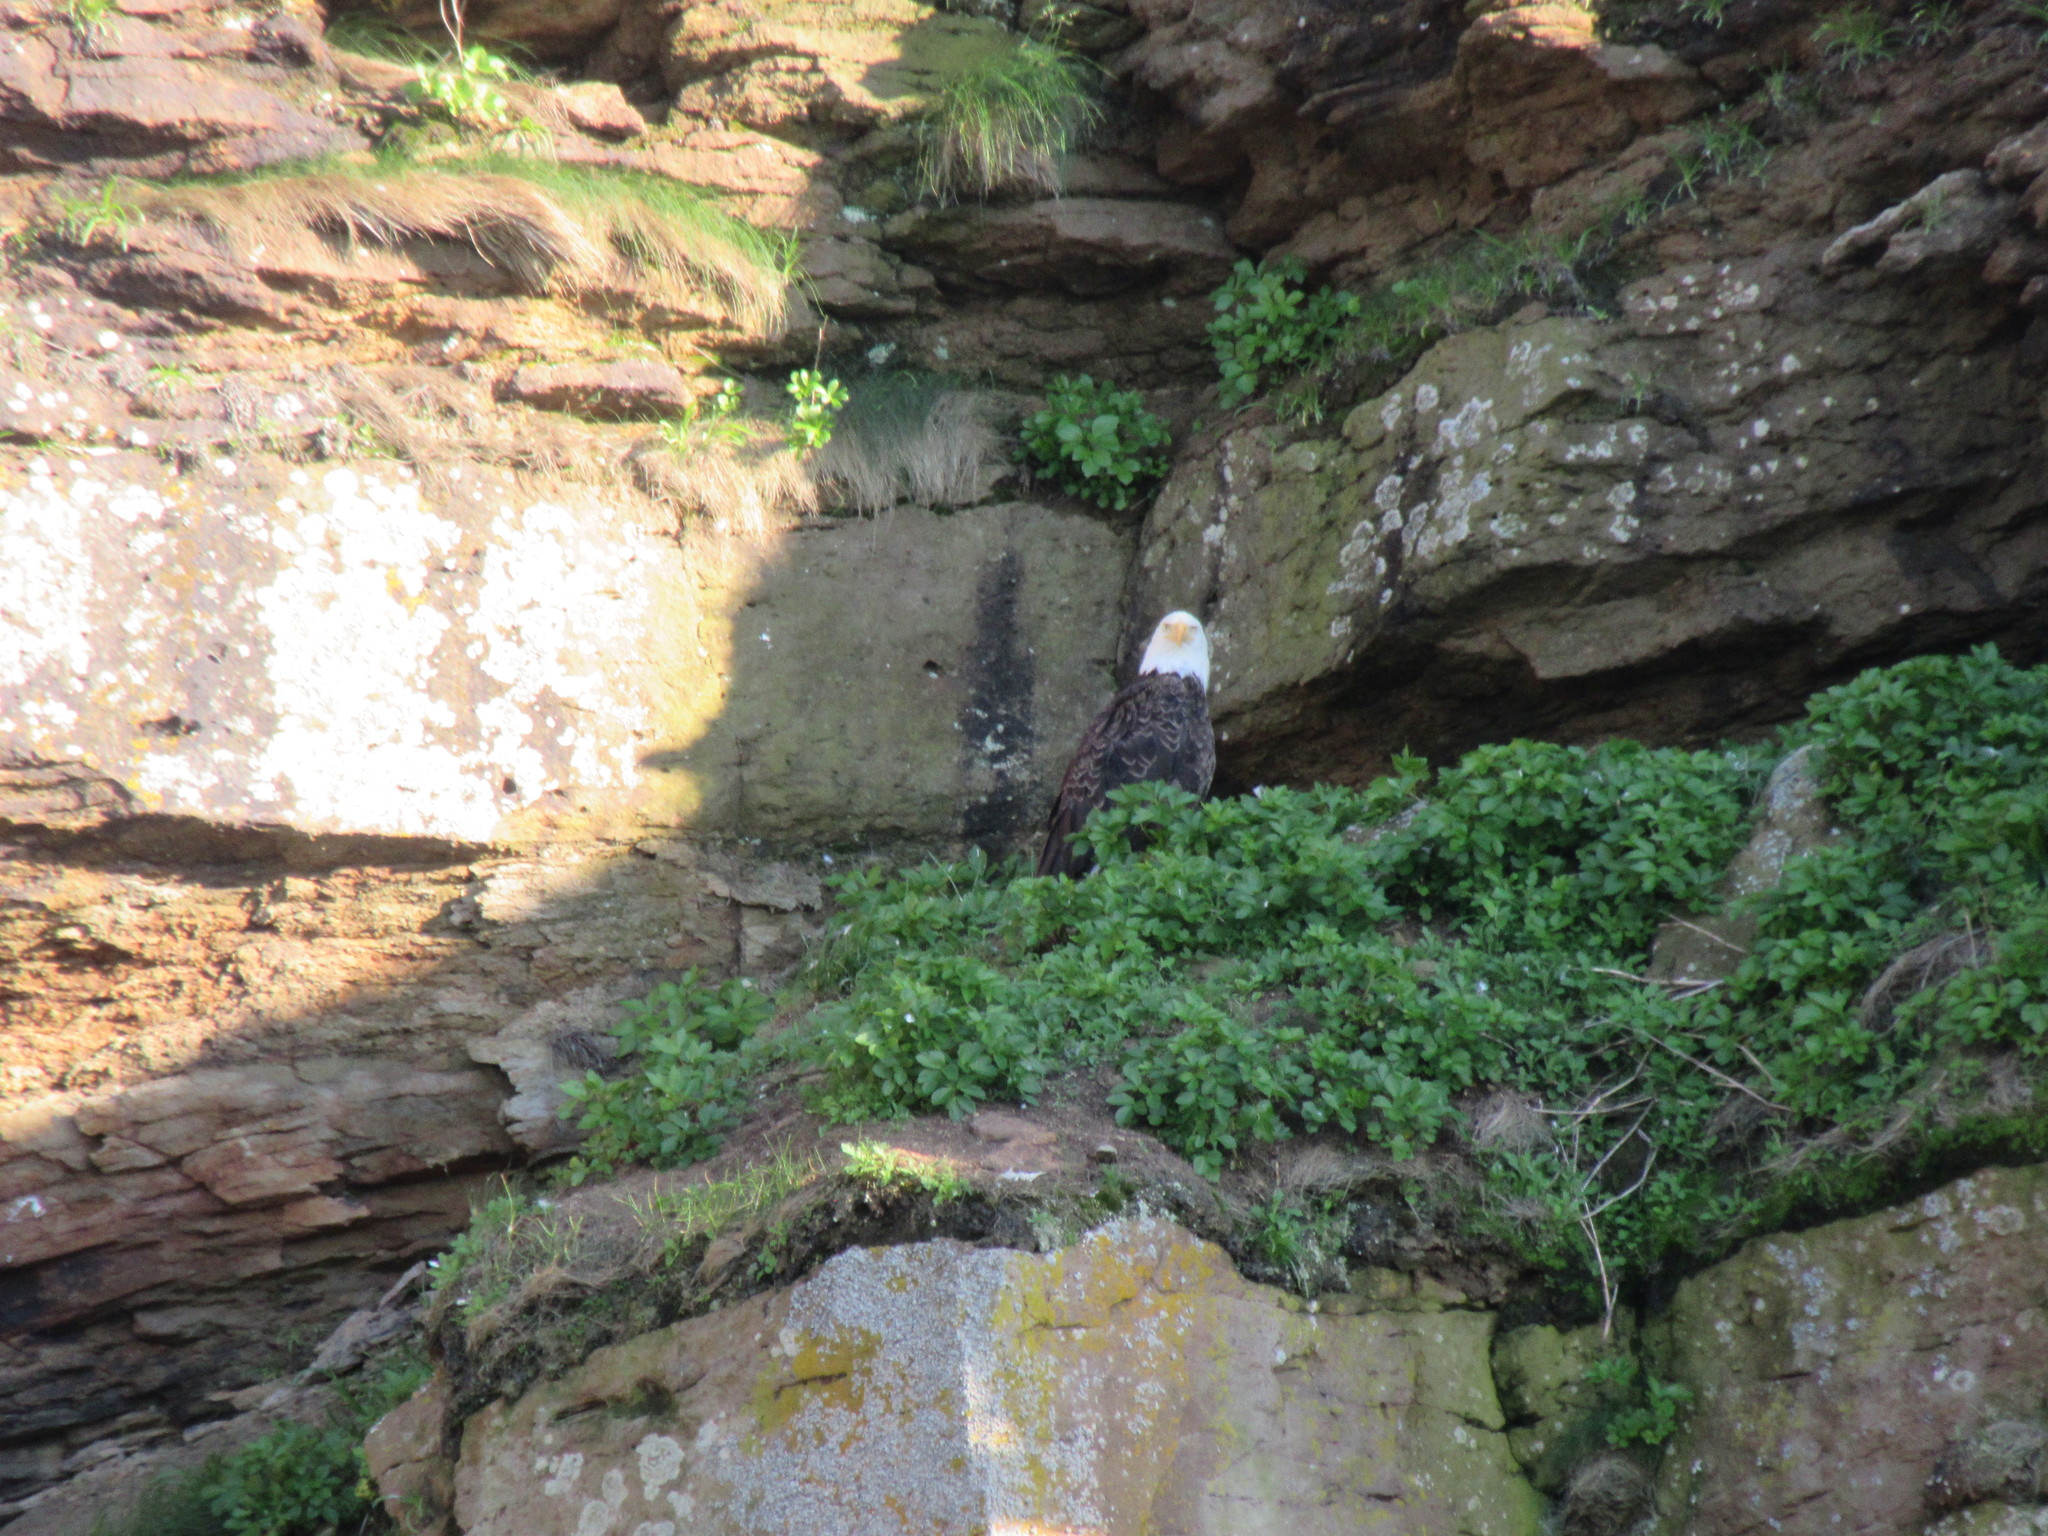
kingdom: Animalia
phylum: Chordata
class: Aves
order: Accipitriformes
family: Accipitridae
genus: Haliaeetus
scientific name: Haliaeetus leucocephalus
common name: Bald eagle
